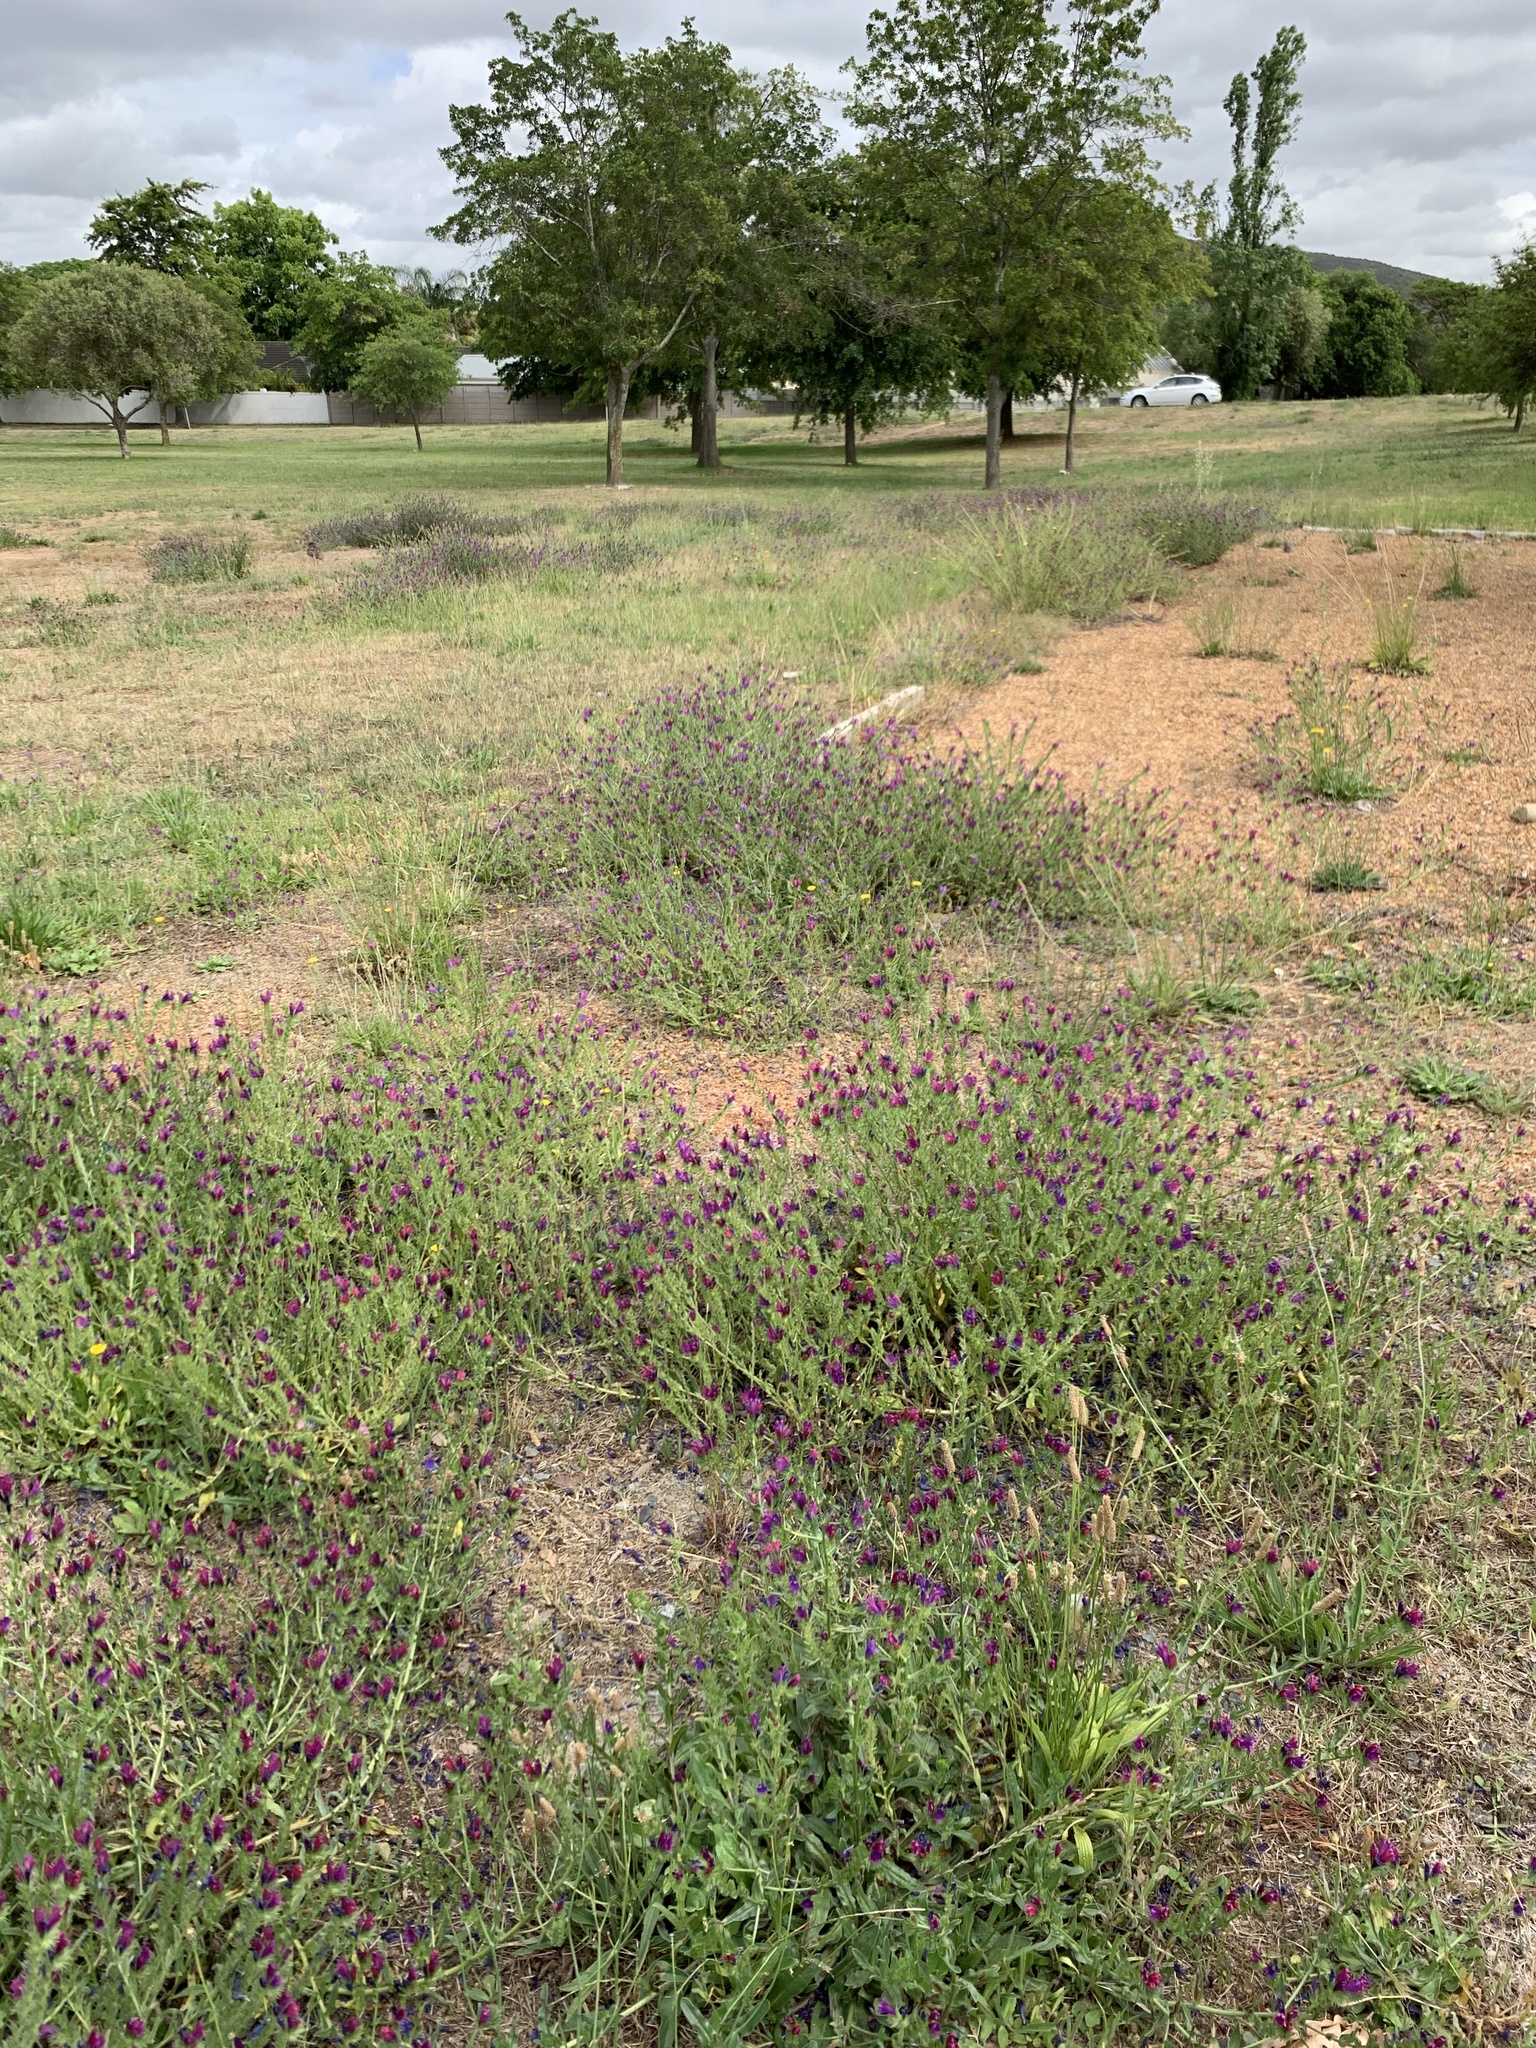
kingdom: Plantae
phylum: Tracheophyta
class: Magnoliopsida
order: Boraginales
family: Boraginaceae
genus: Echium
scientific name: Echium plantagineum
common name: Purple viper's-bugloss
